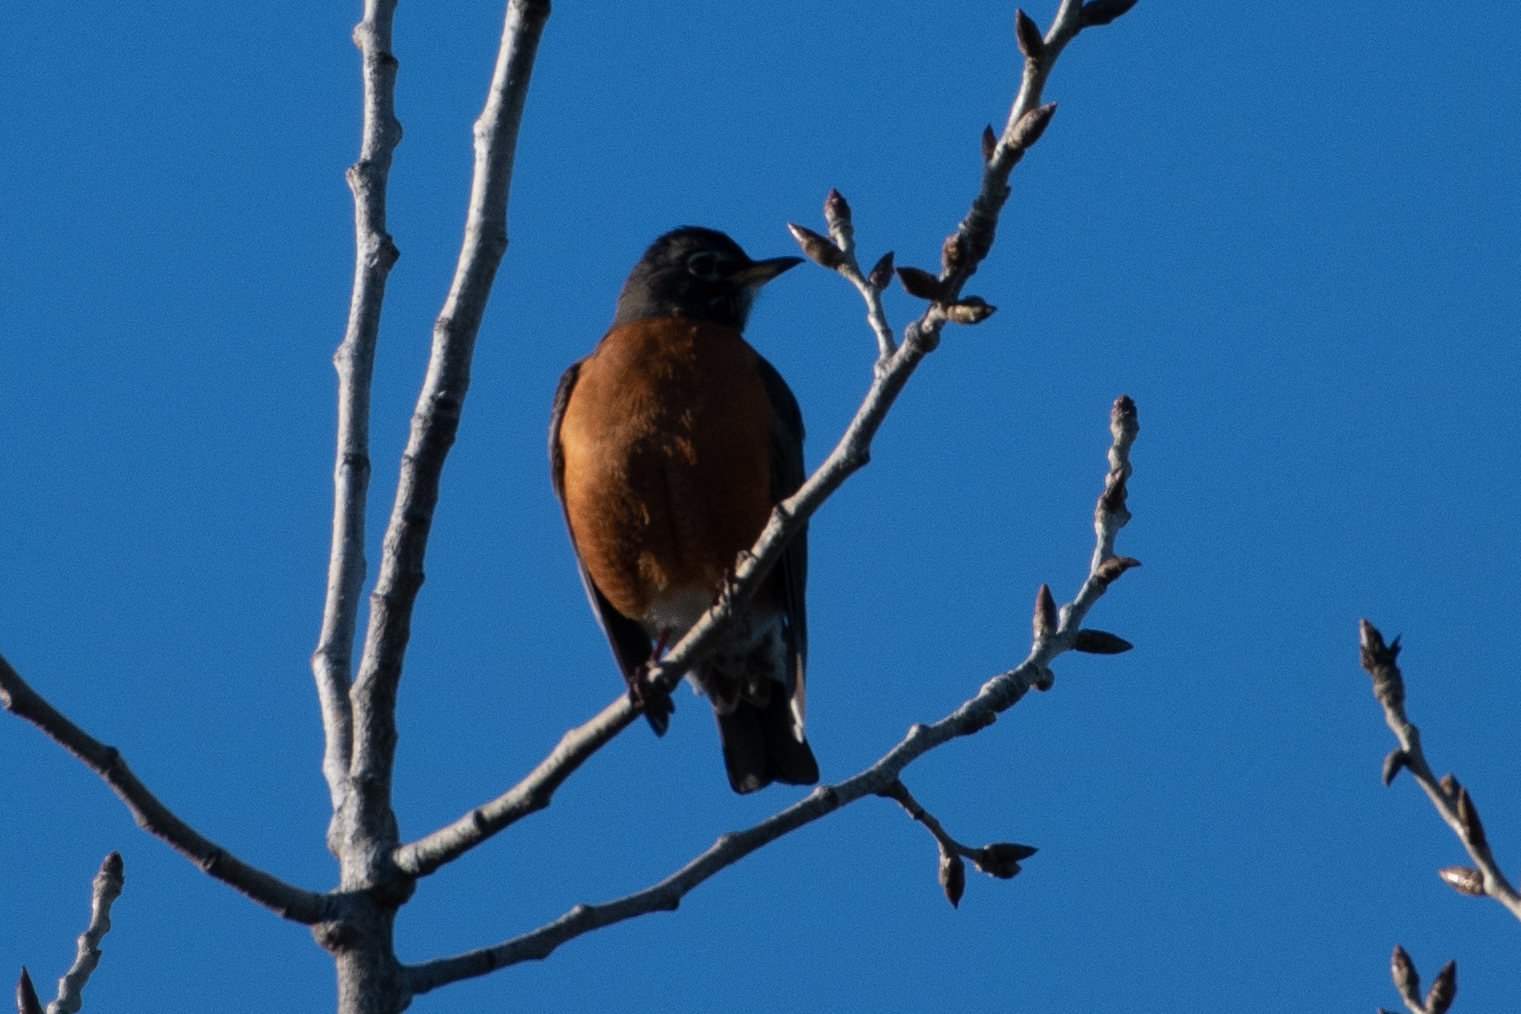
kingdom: Animalia
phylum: Chordata
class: Aves
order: Passeriformes
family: Turdidae
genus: Turdus
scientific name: Turdus migratorius
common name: American robin
